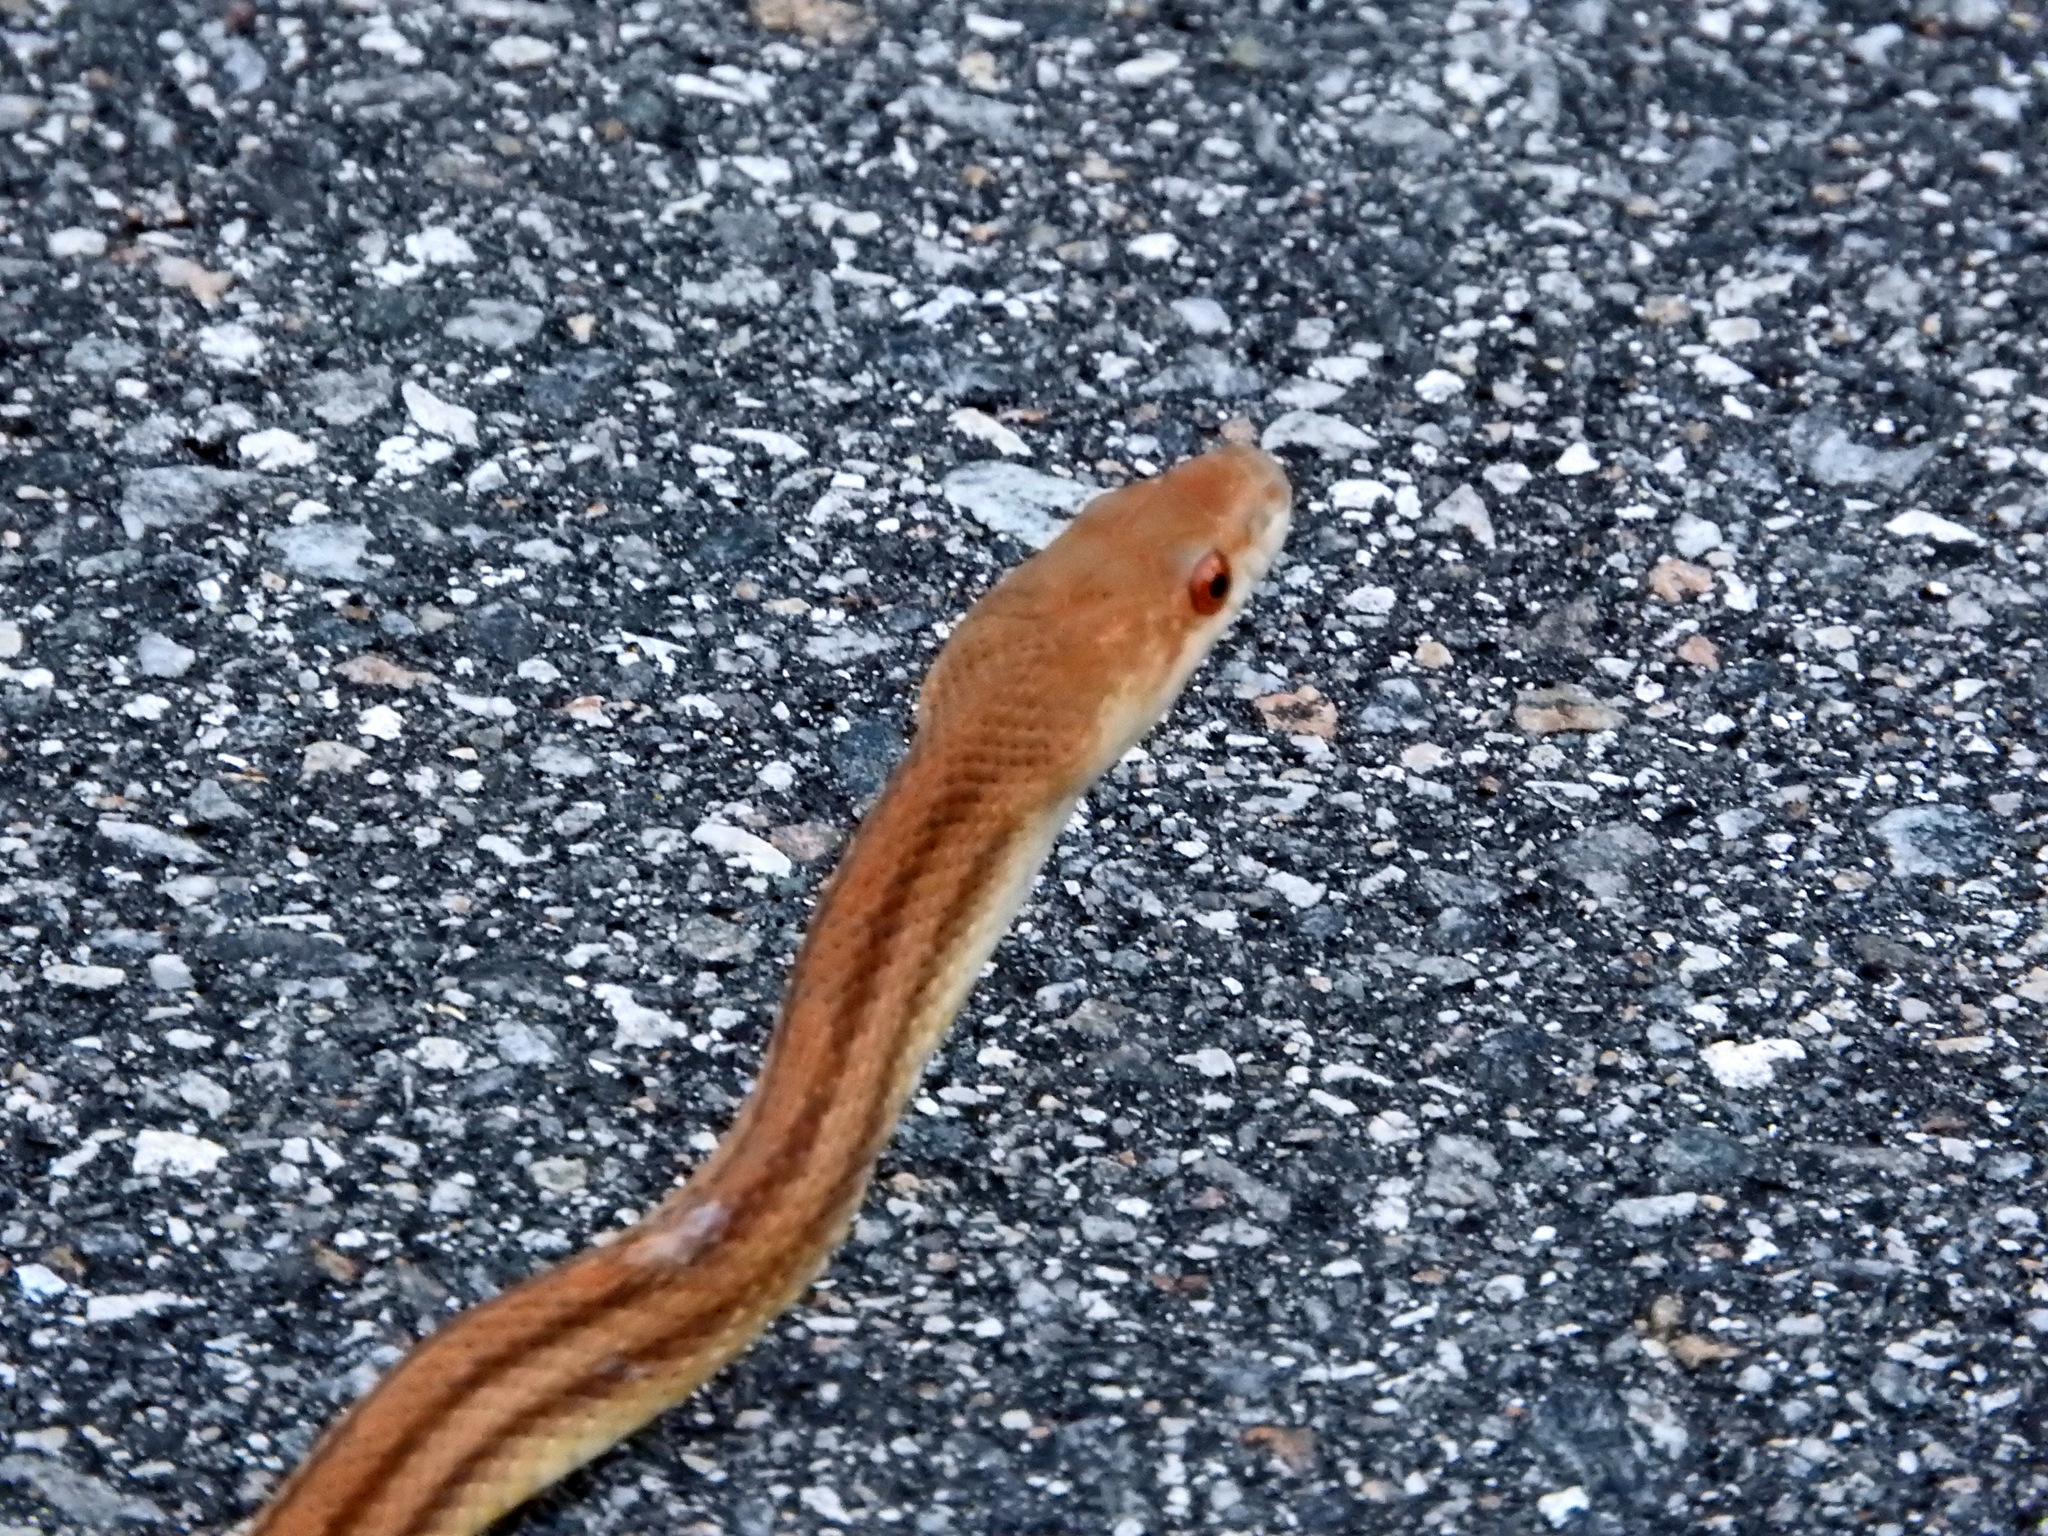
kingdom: Animalia
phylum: Chordata
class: Squamata
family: Colubridae
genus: Pantherophis
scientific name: Pantherophis alleghaniensis
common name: Eastern rat snake
